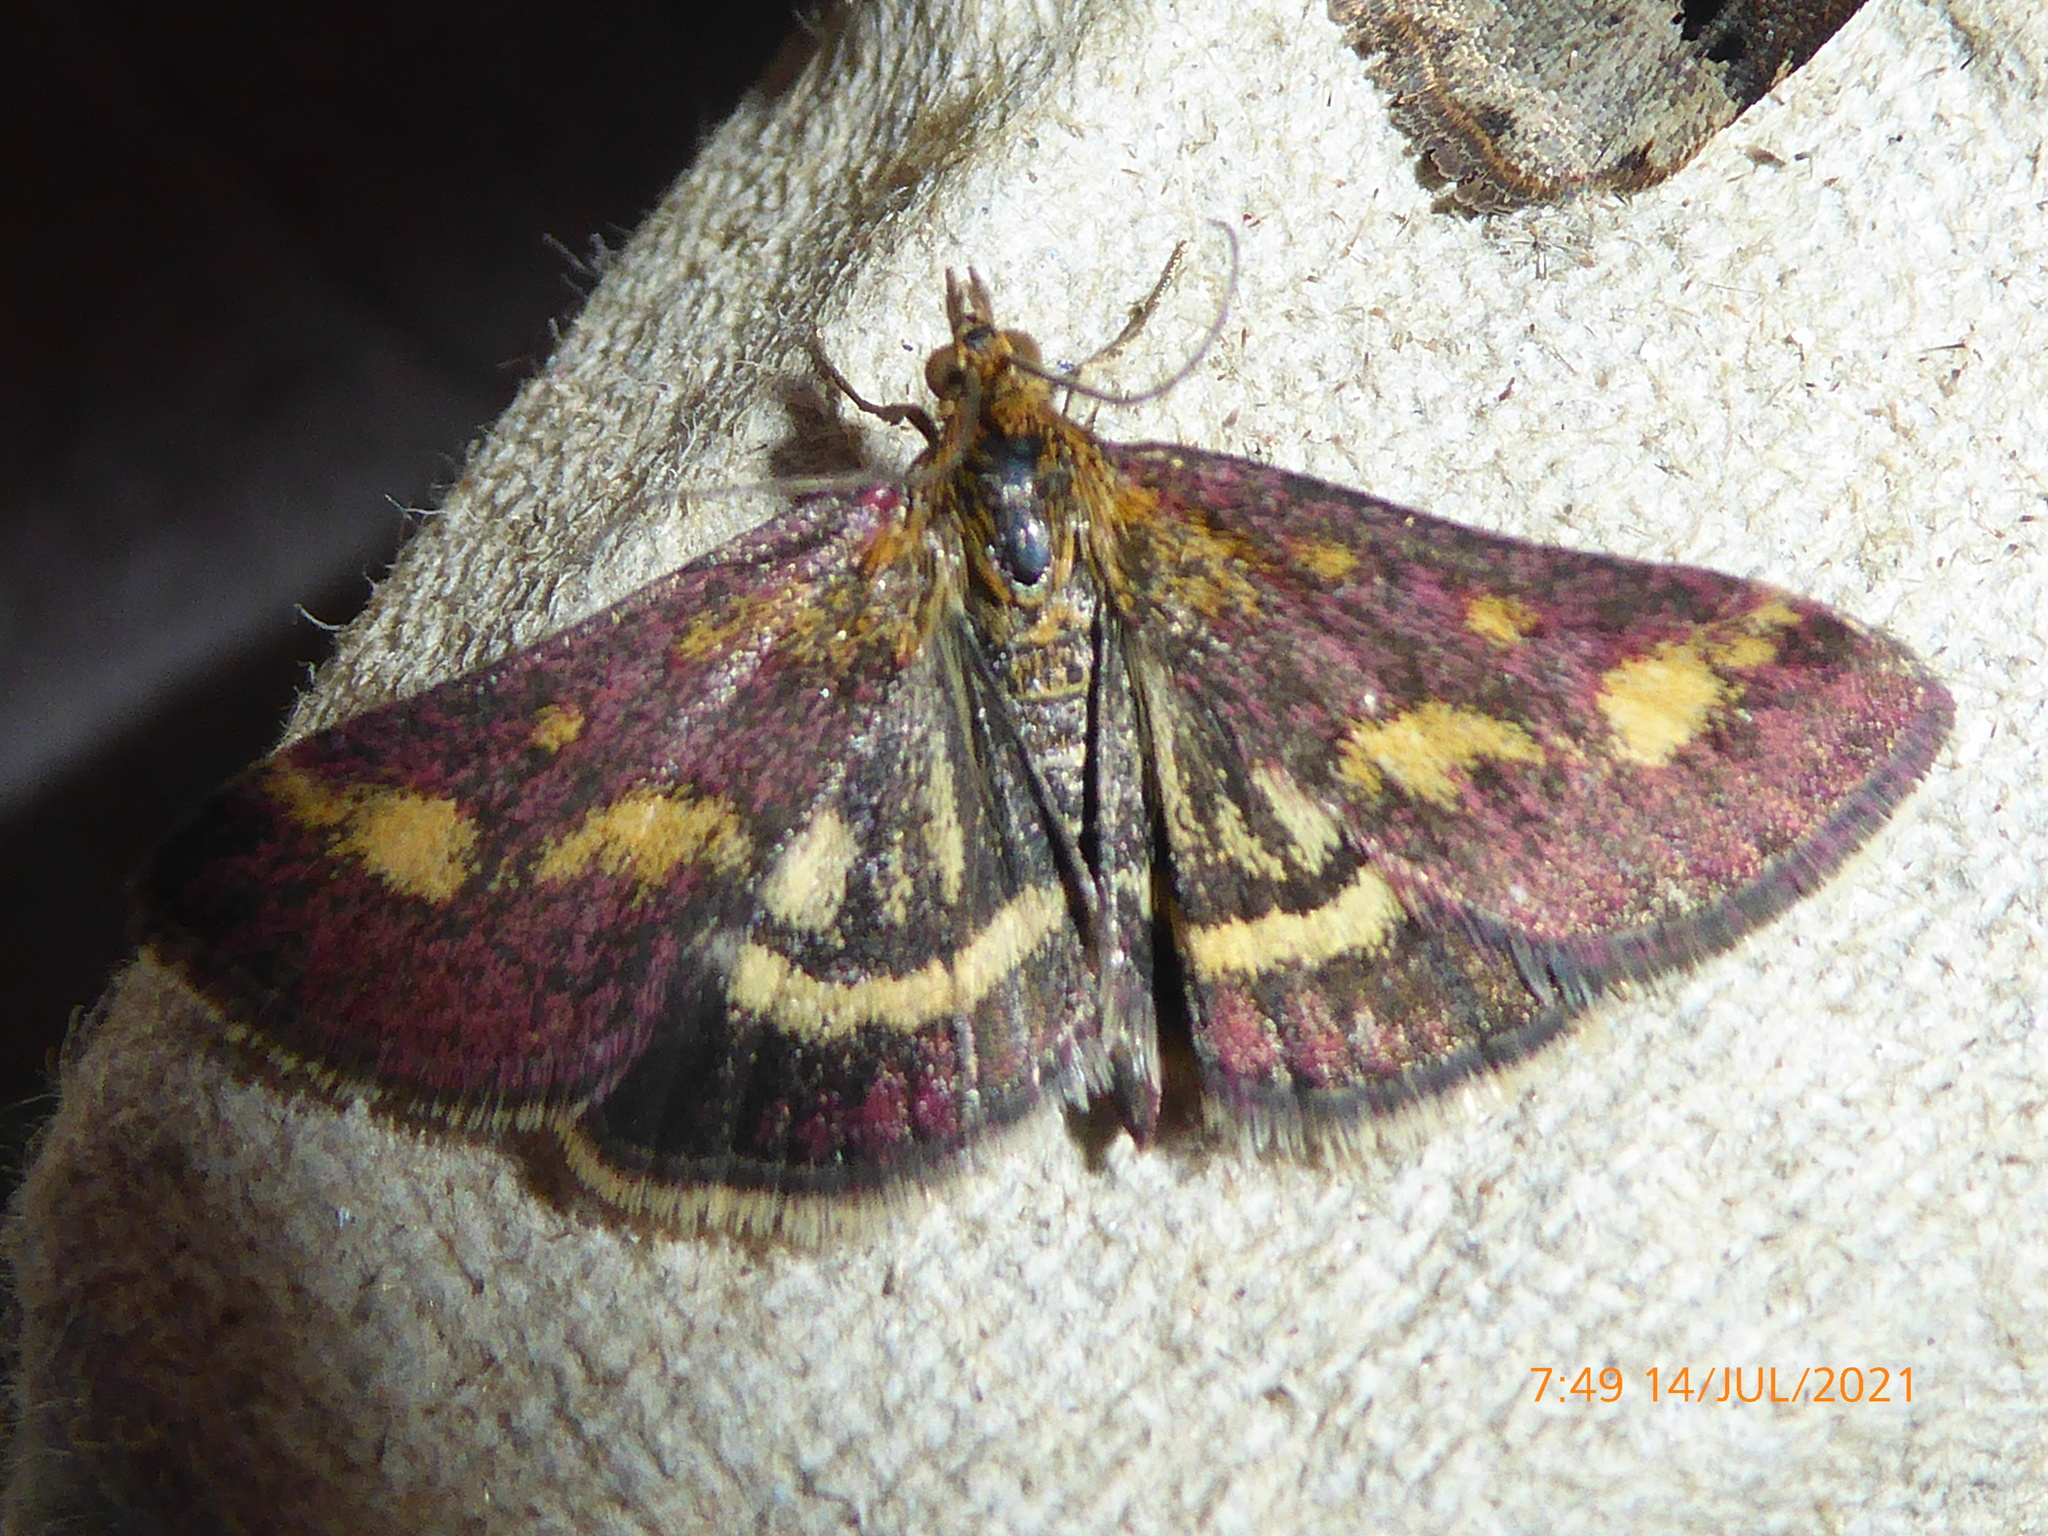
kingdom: Animalia
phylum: Arthropoda
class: Insecta
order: Lepidoptera
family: Crambidae
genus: Pyrausta
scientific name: Pyrausta purpuralis
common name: Common purple & gold
